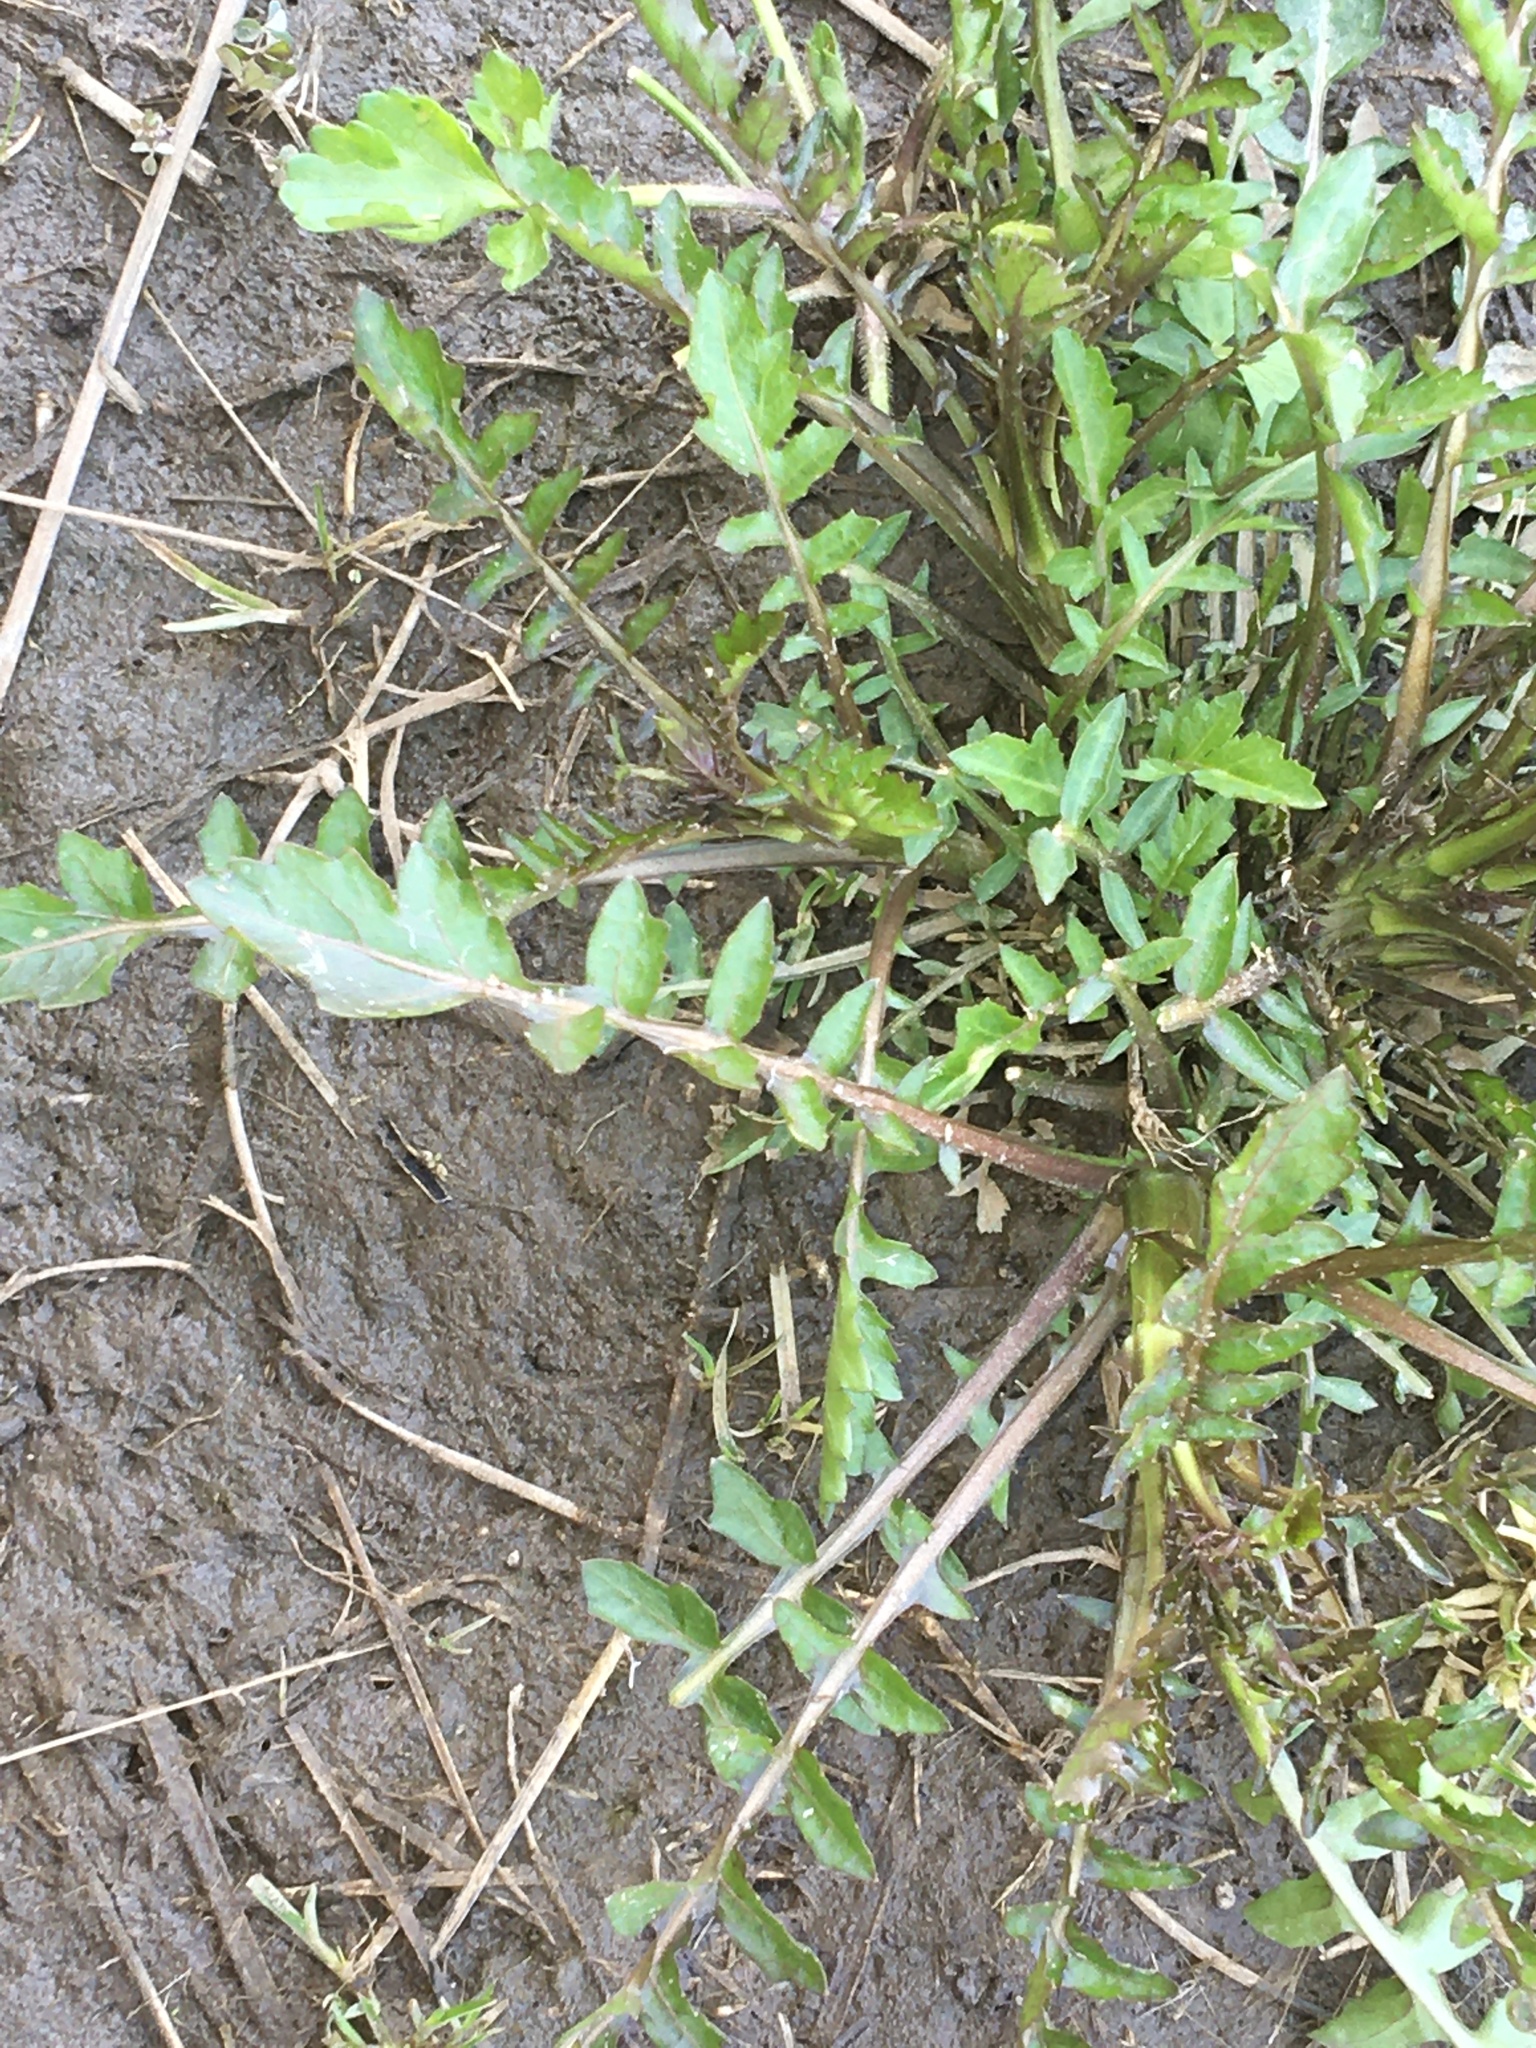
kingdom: Plantae
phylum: Tracheophyta
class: Magnoliopsida
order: Brassicales
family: Brassicaceae
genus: Rorippa
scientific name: Rorippa palustris
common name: Marsh yellow-cress
